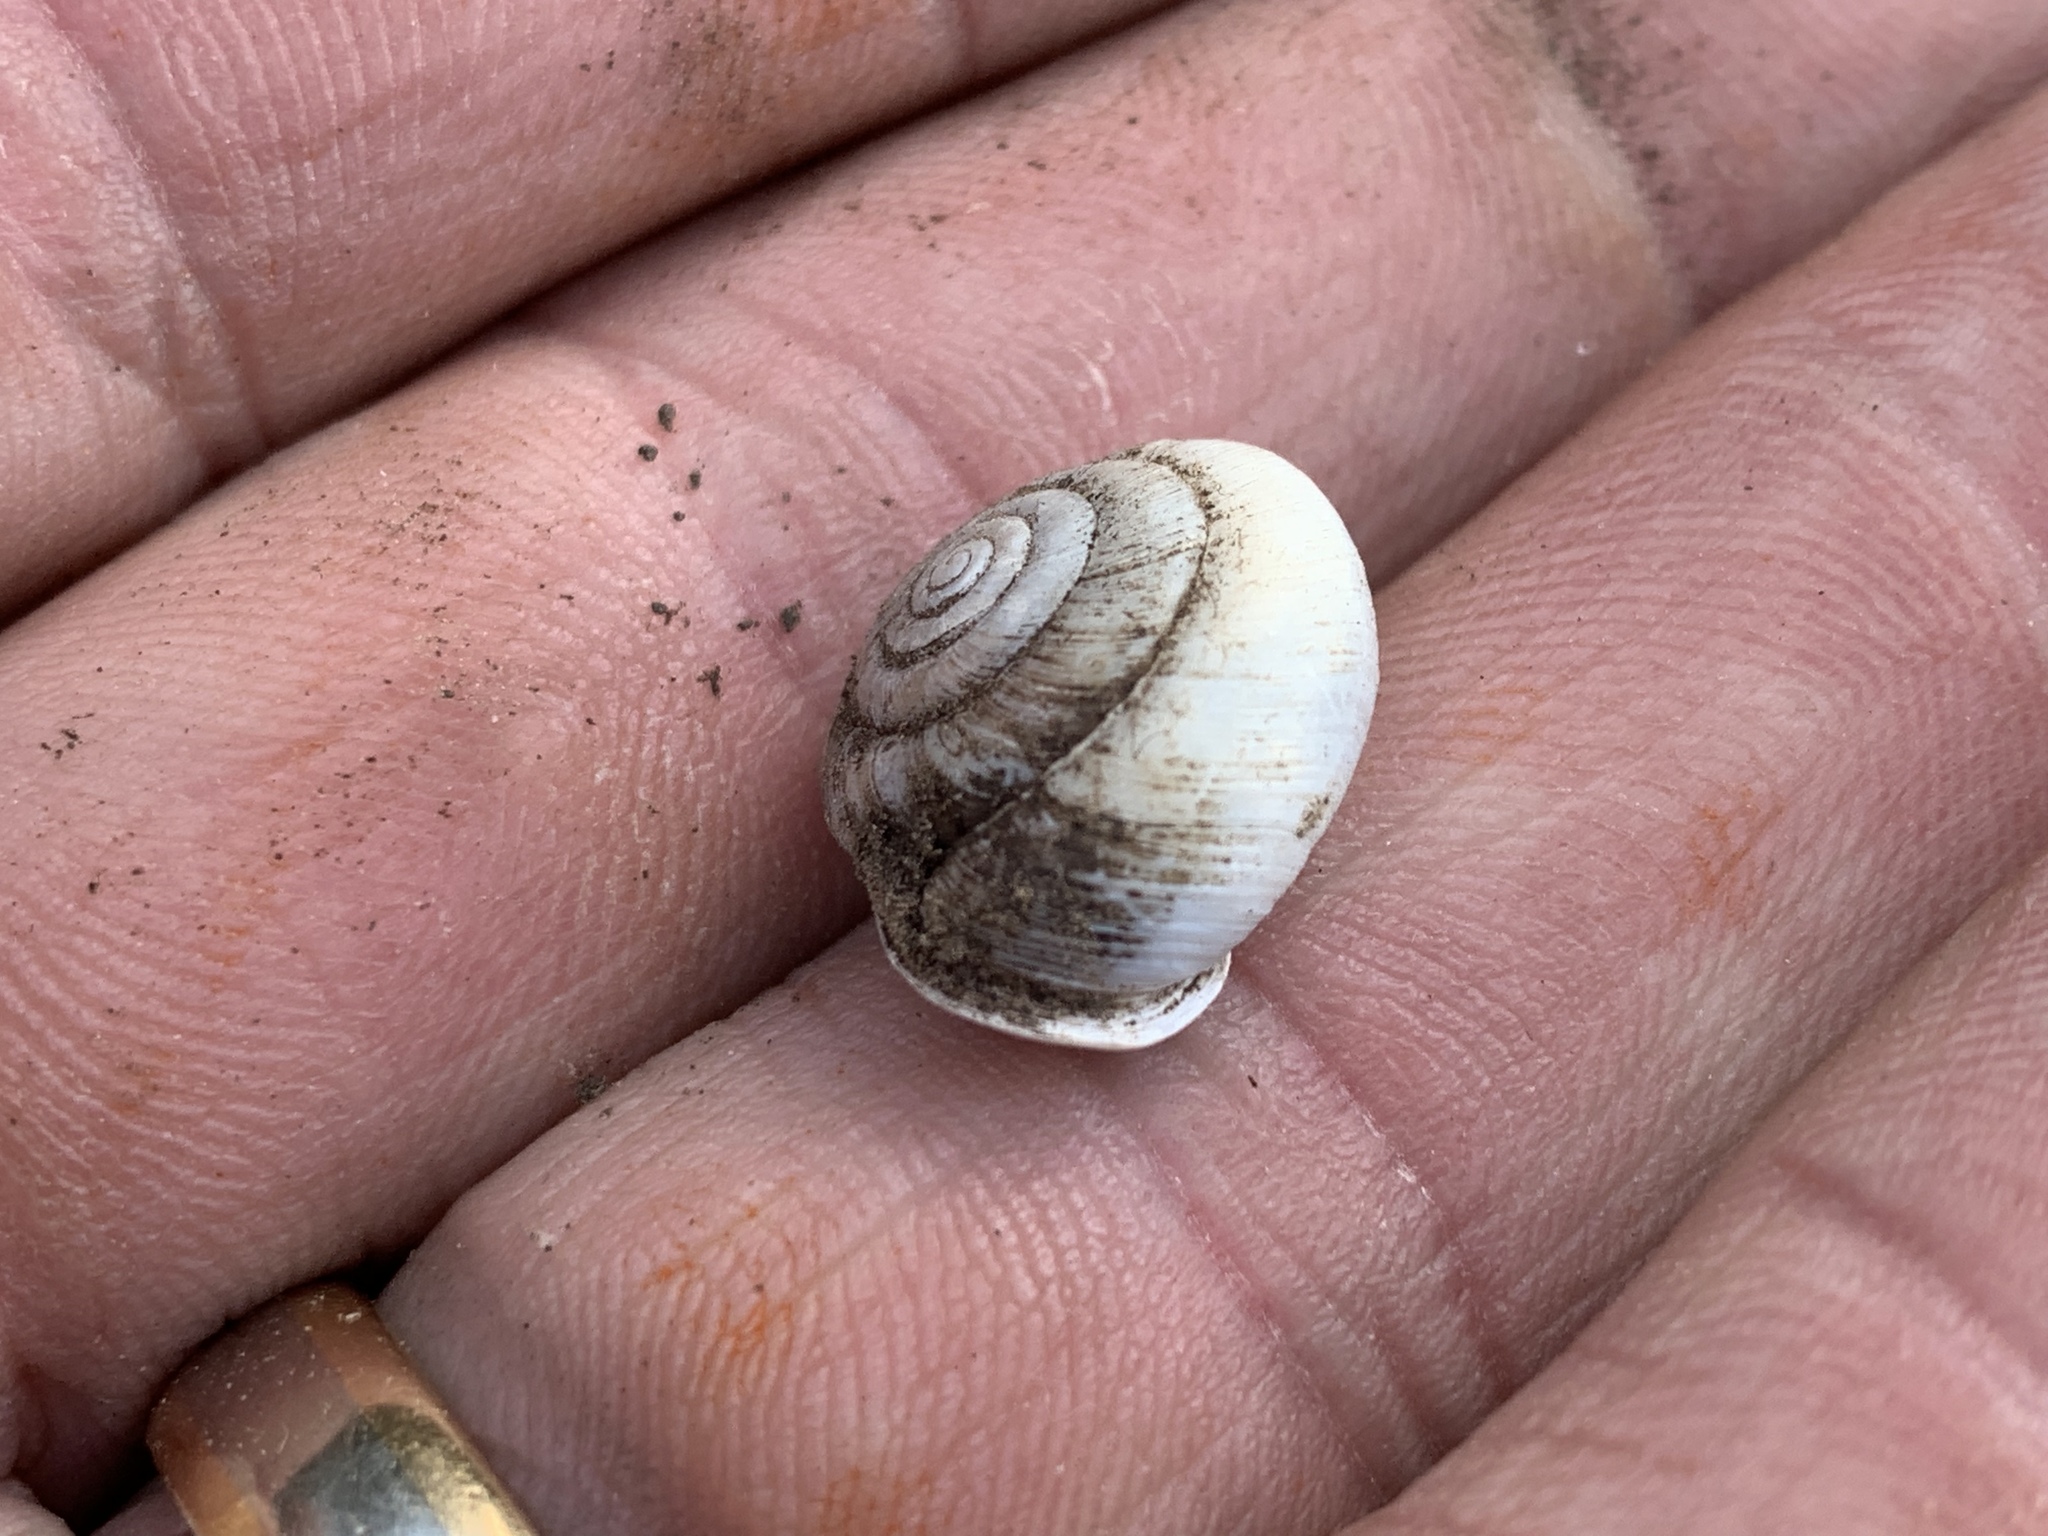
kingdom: Animalia
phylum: Mollusca
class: Gastropoda
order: Stylommatophora
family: Polygyridae
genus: Ashmunella
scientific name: Ashmunella rhyssa
